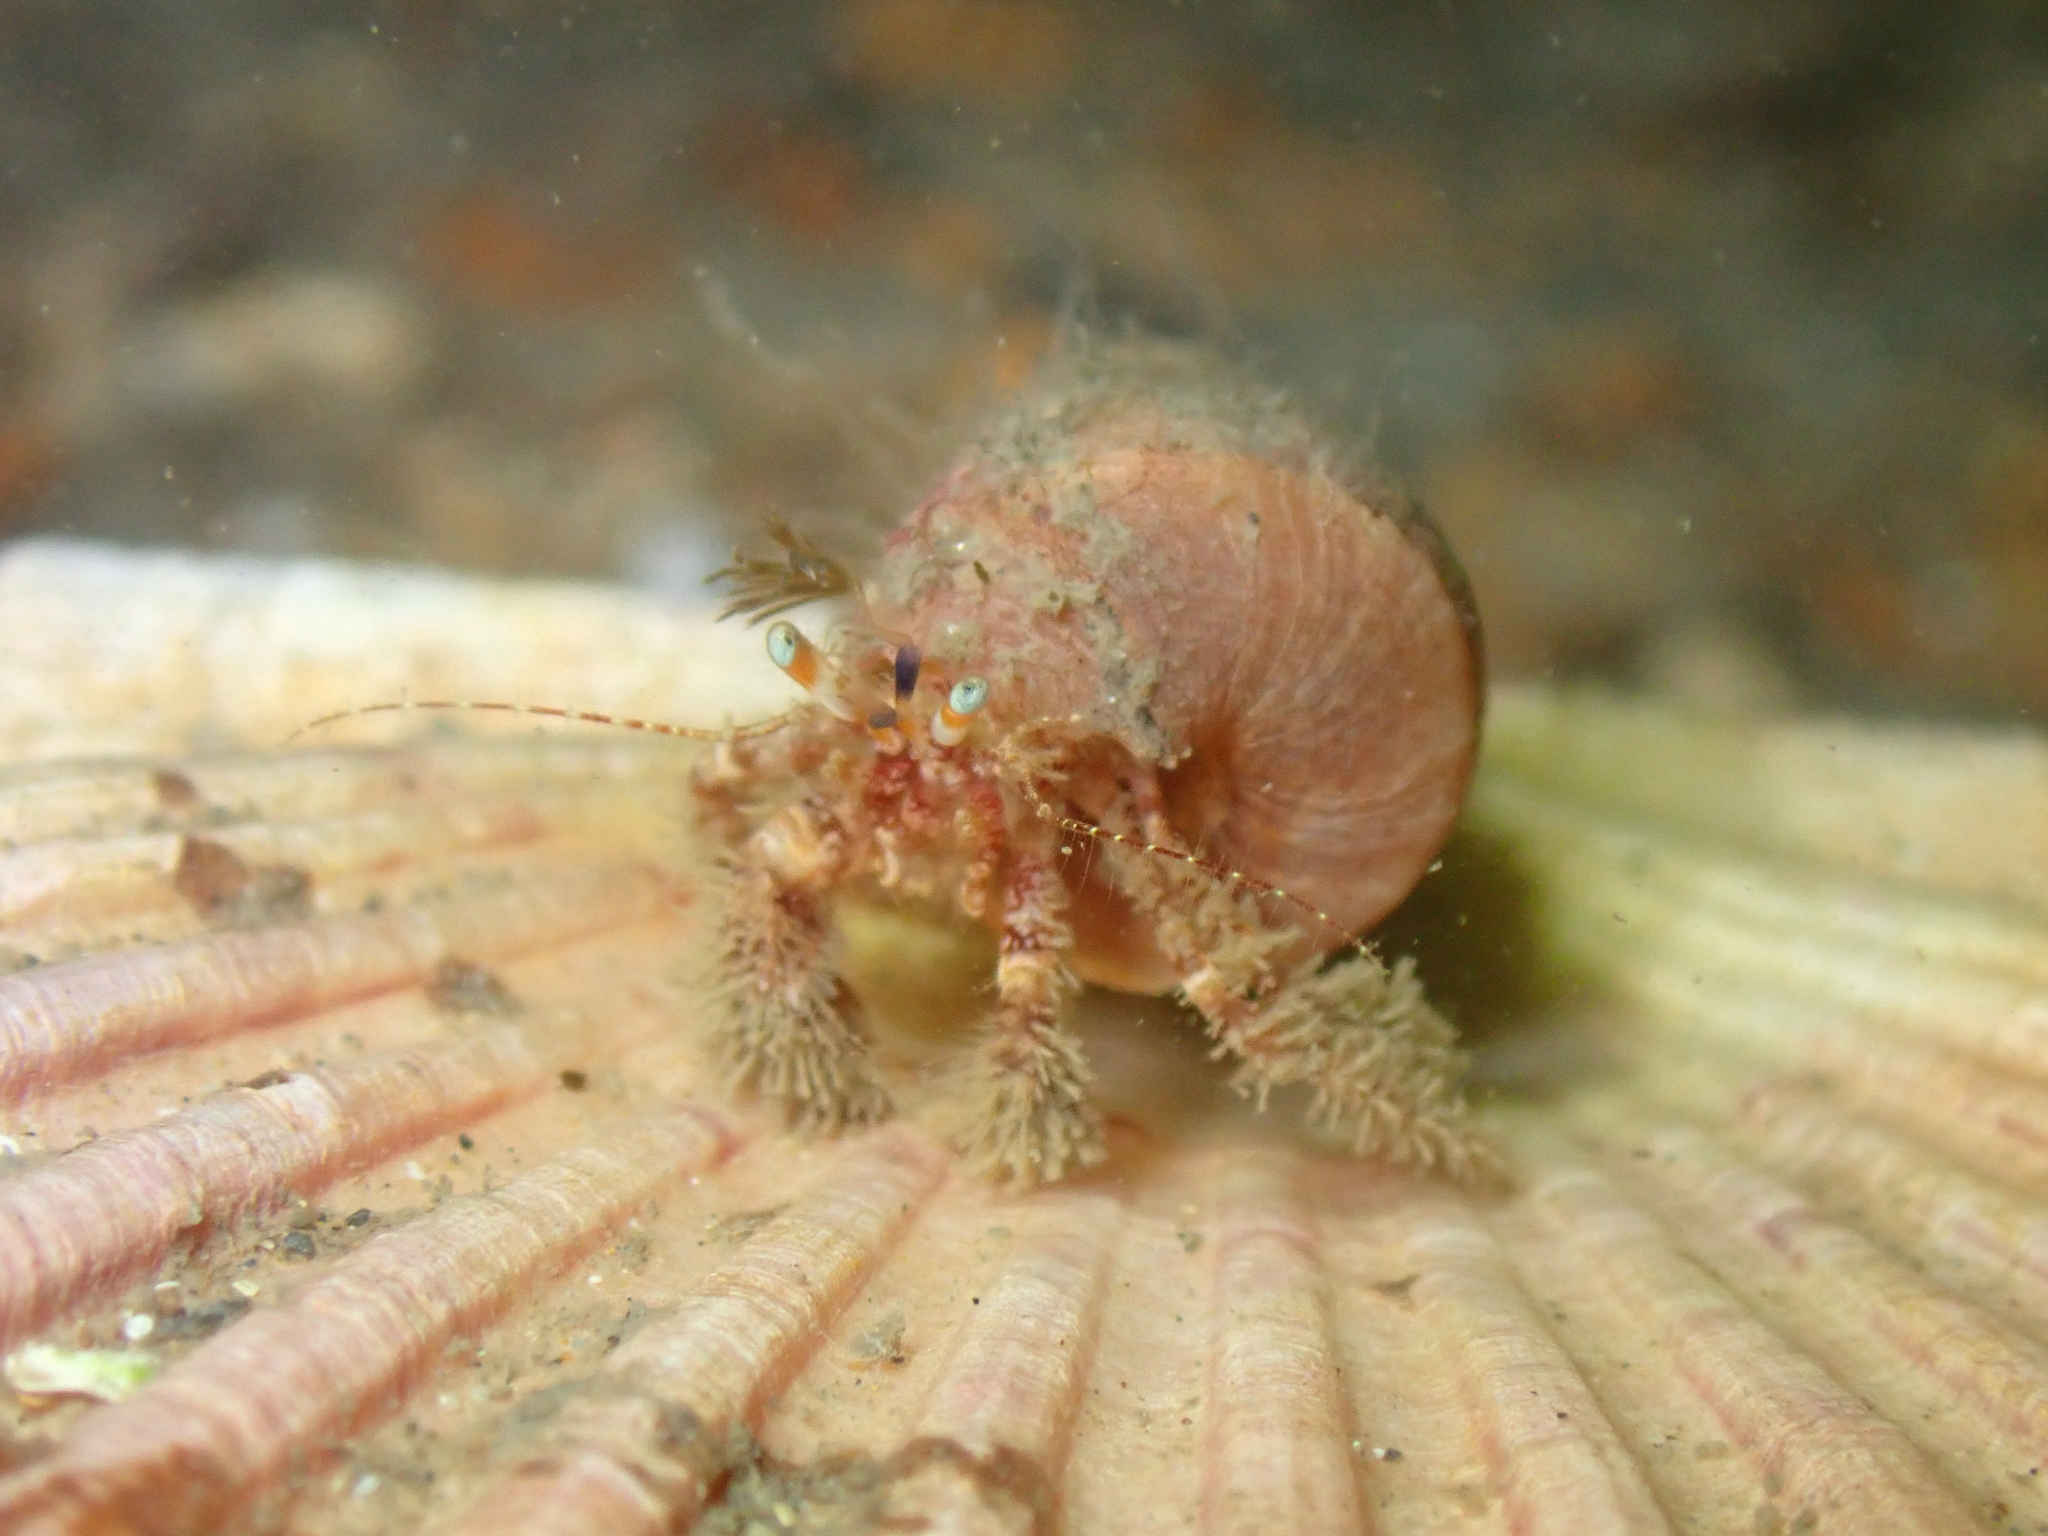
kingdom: Animalia
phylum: Arthropoda
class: Malacostraca
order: Decapoda
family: Paguridae
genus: Pagurus
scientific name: Pagurus cuanensis
